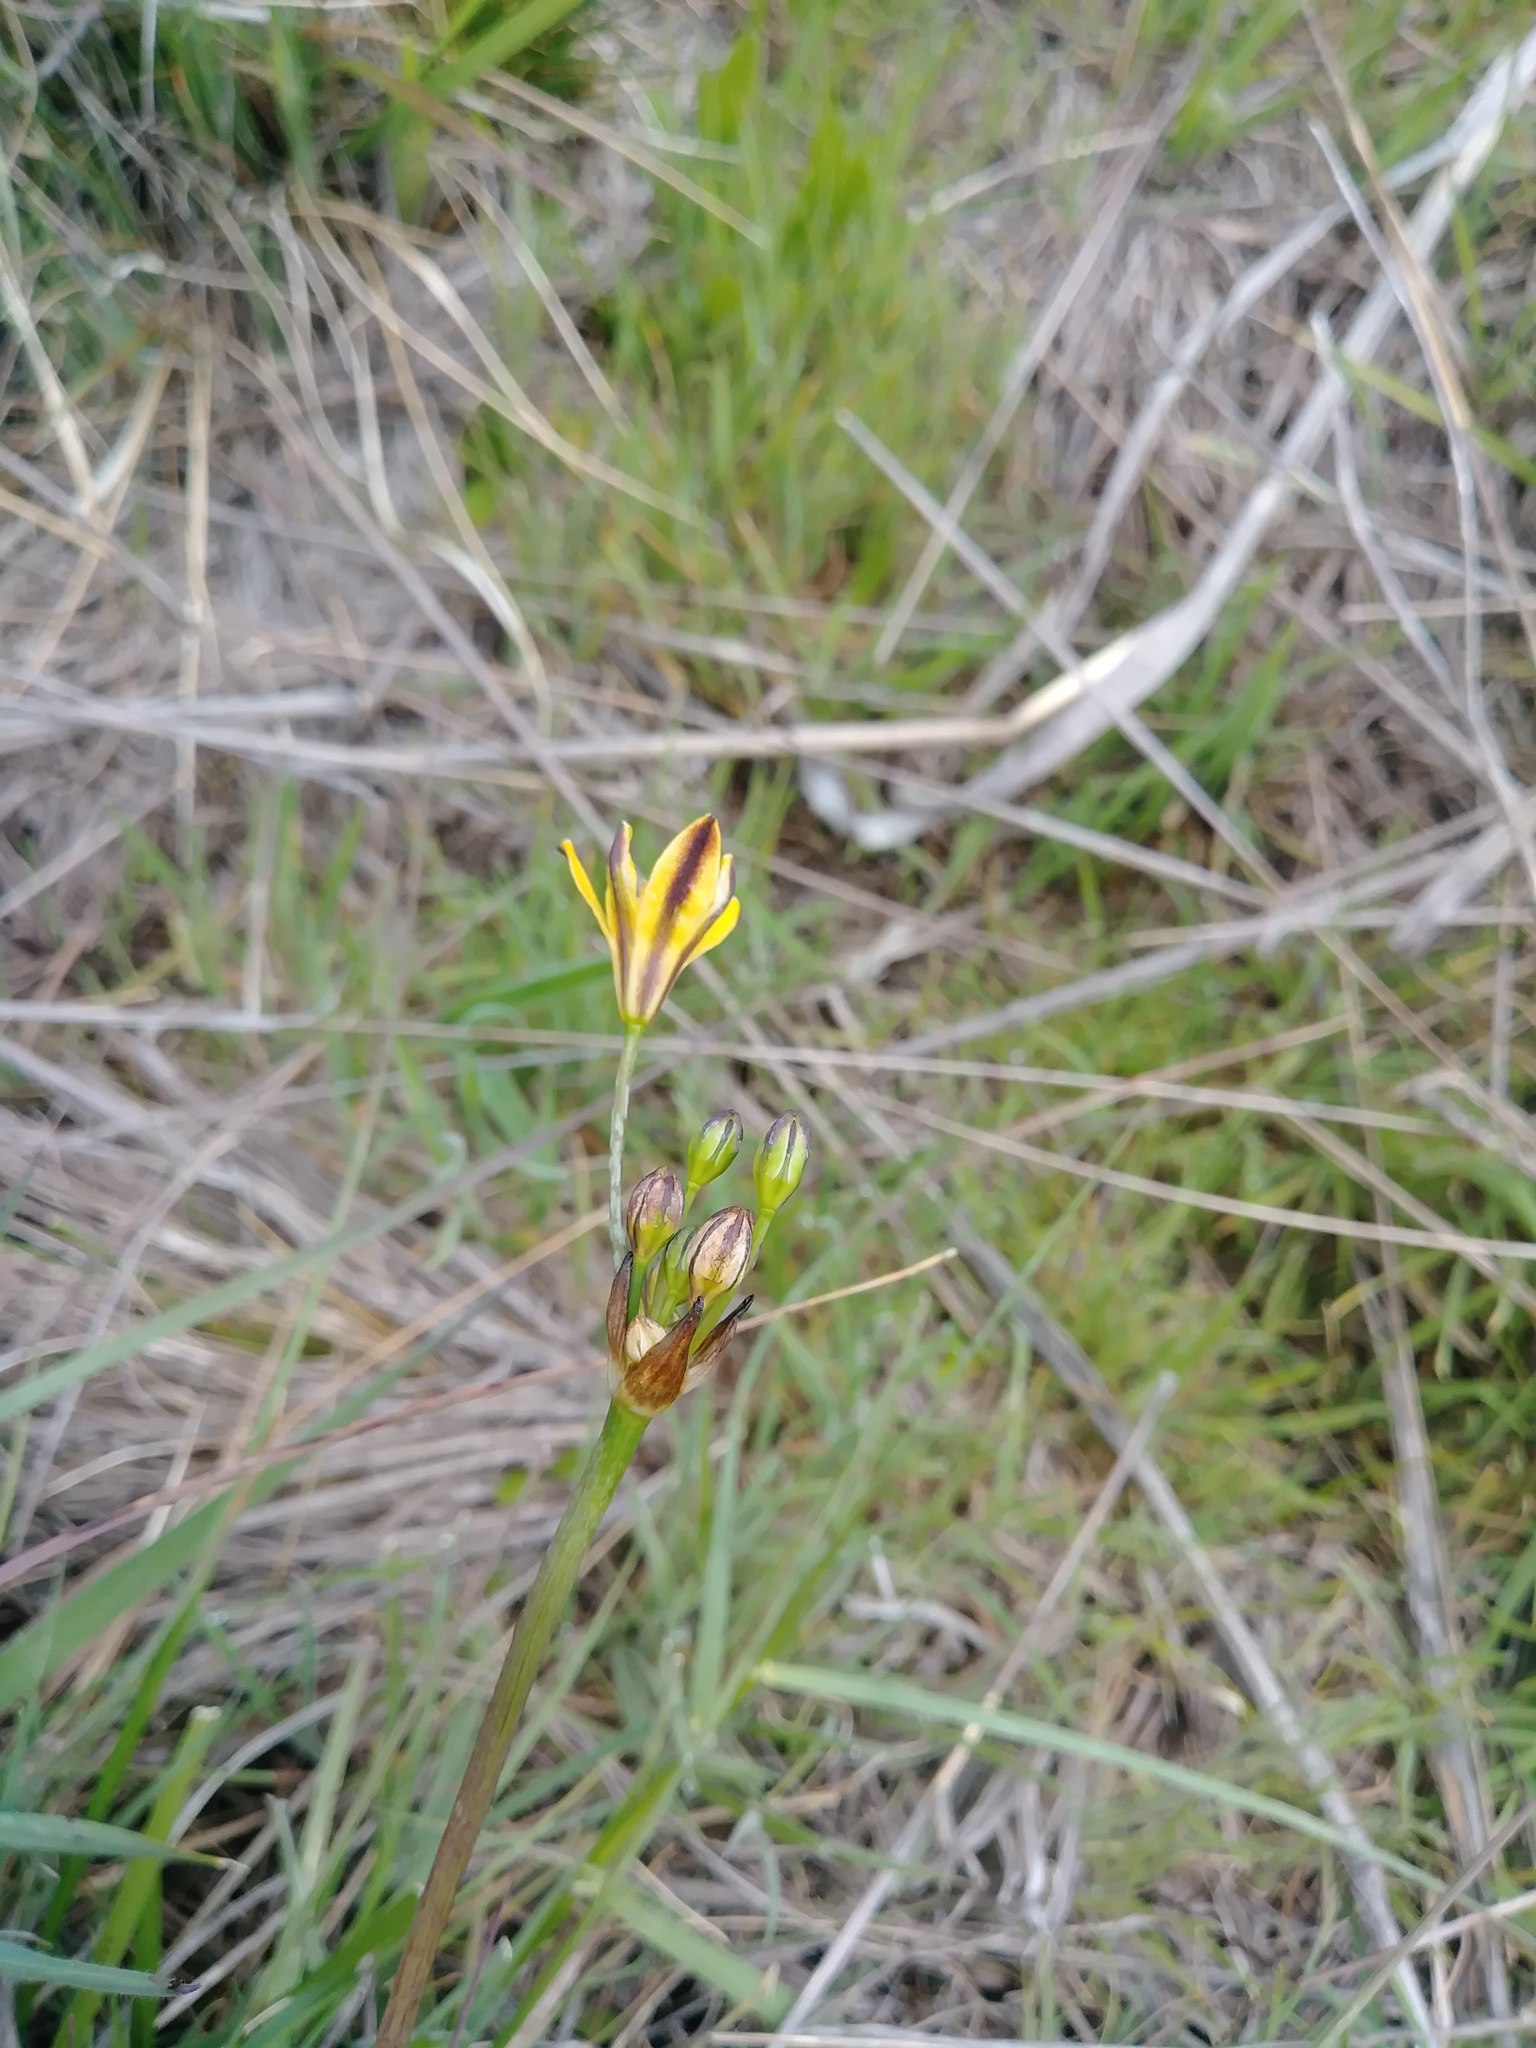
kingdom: Plantae
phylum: Tracheophyta
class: Liliopsida
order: Asparagales
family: Asparagaceae
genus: Triteleia
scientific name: Triteleia ixioides
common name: Yellow-brodiaea
